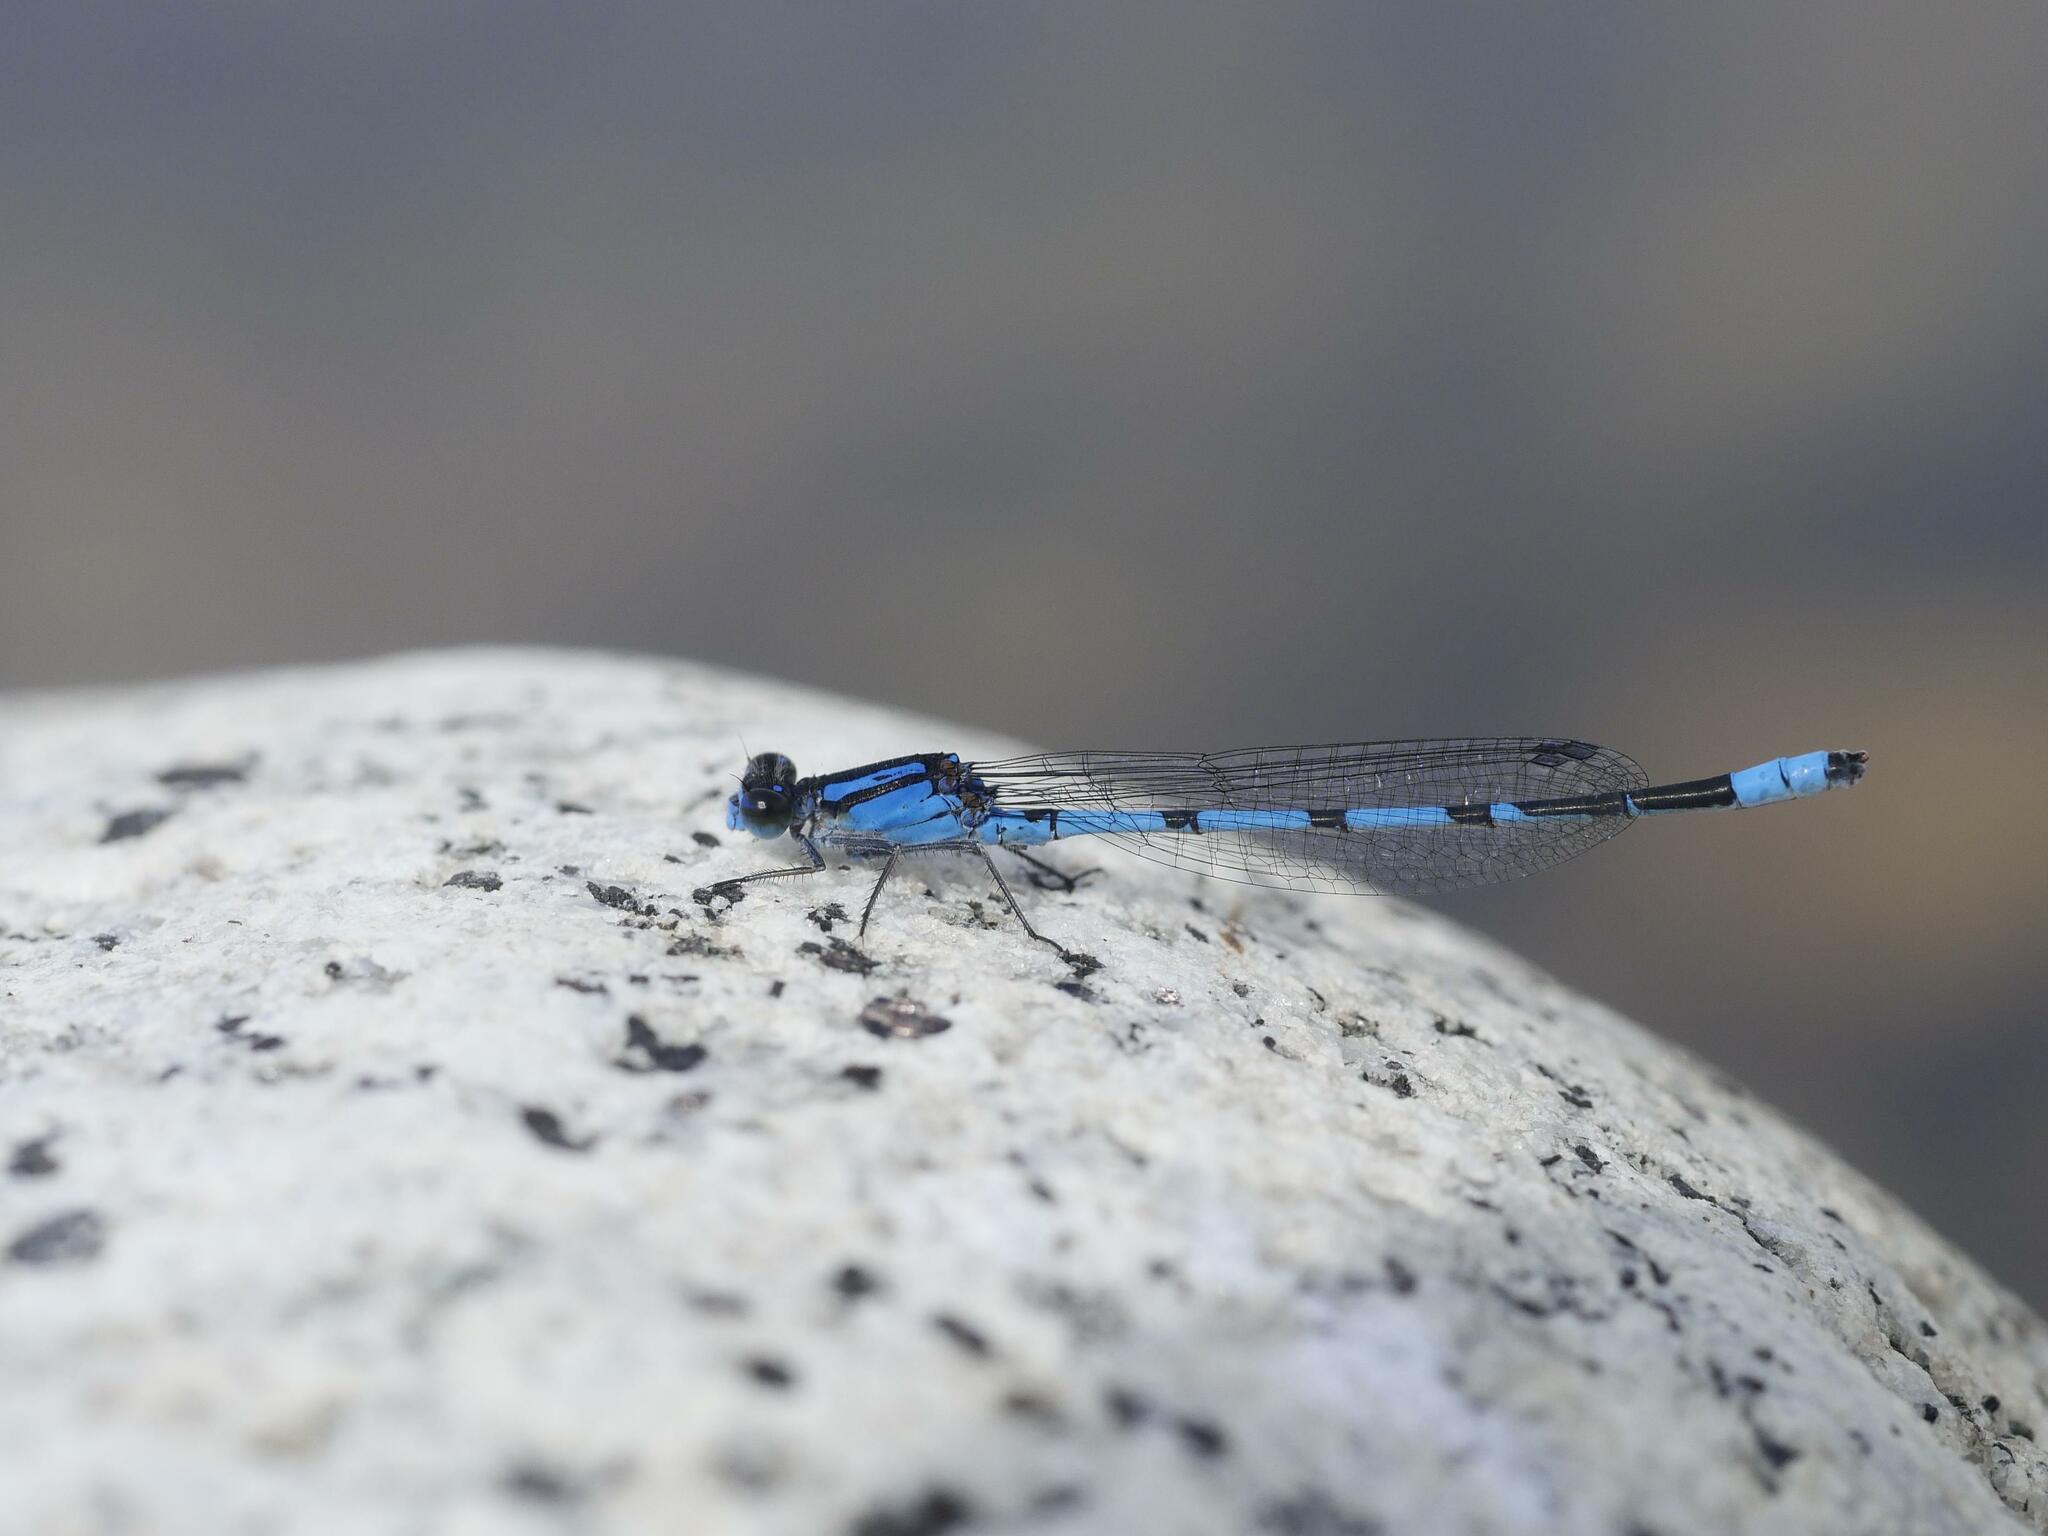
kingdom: Animalia
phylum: Arthropoda
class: Insecta
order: Odonata
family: Coenagrionidae
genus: Enallagma
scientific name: Enallagma civile
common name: Damselfly
